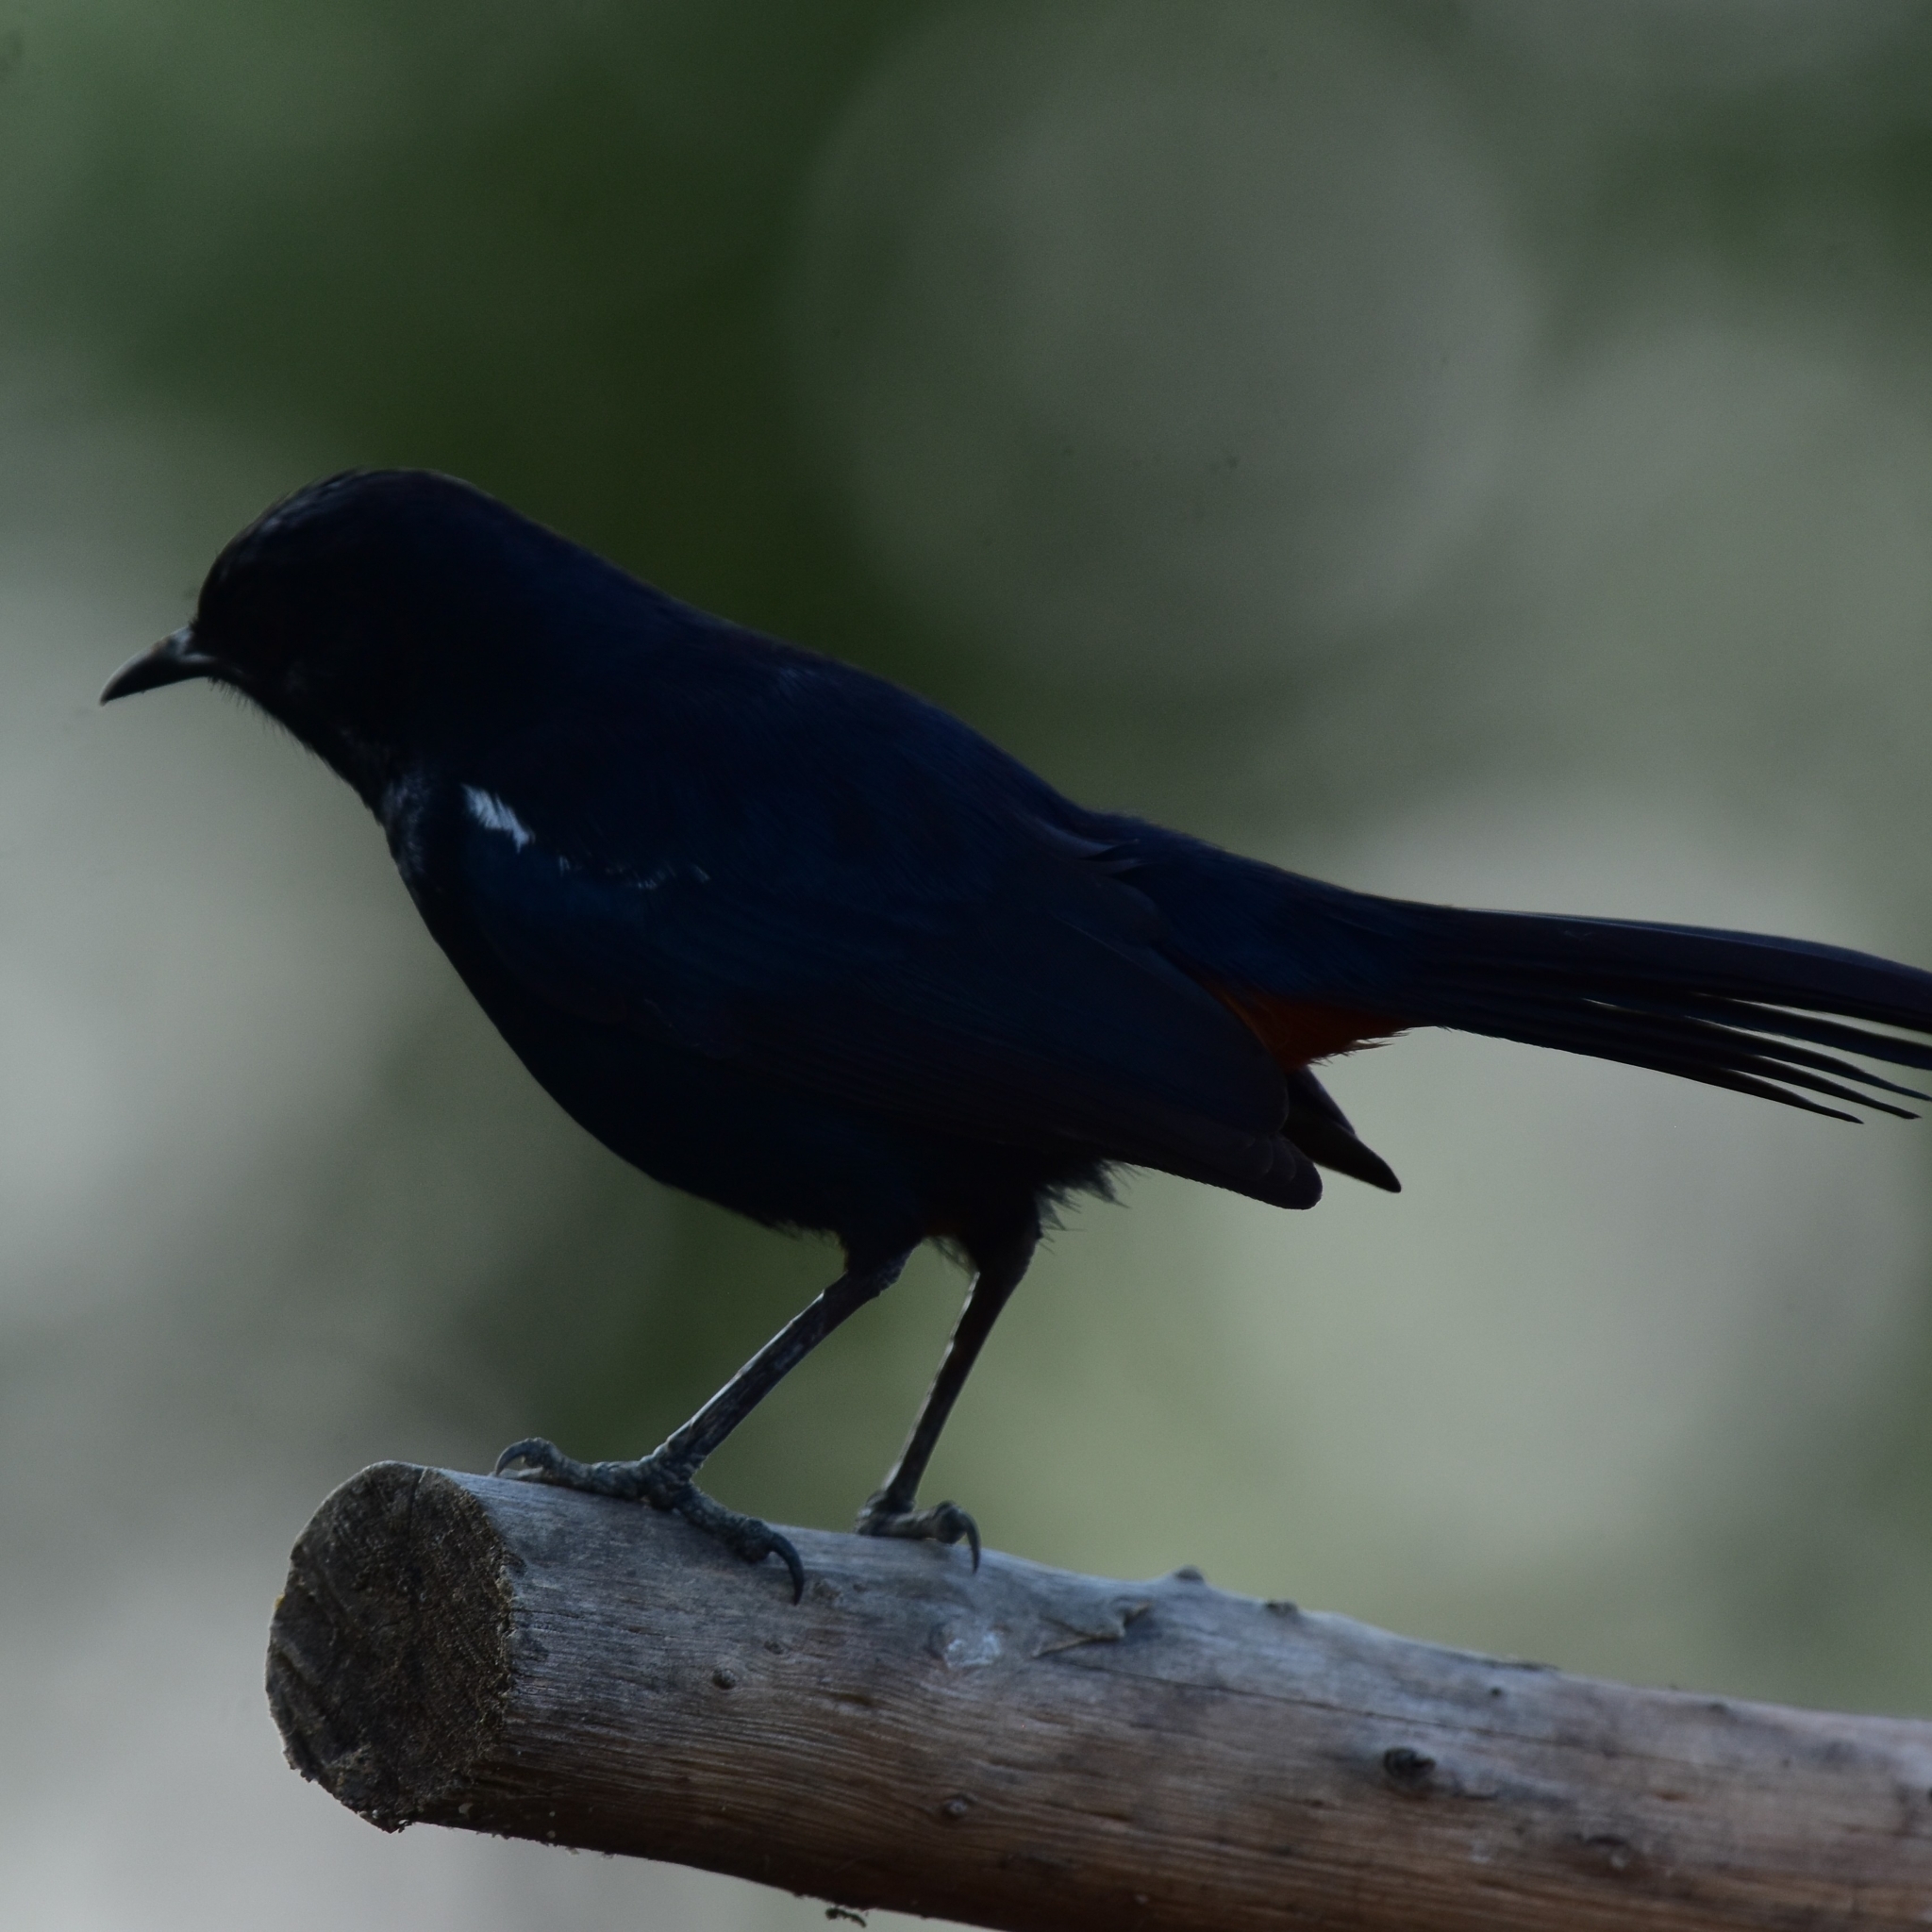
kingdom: Animalia
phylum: Chordata
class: Aves
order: Passeriformes
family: Muscicapidae
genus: Saxicoloides
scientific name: Saxicoloides fulicatus
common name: Indian robin
